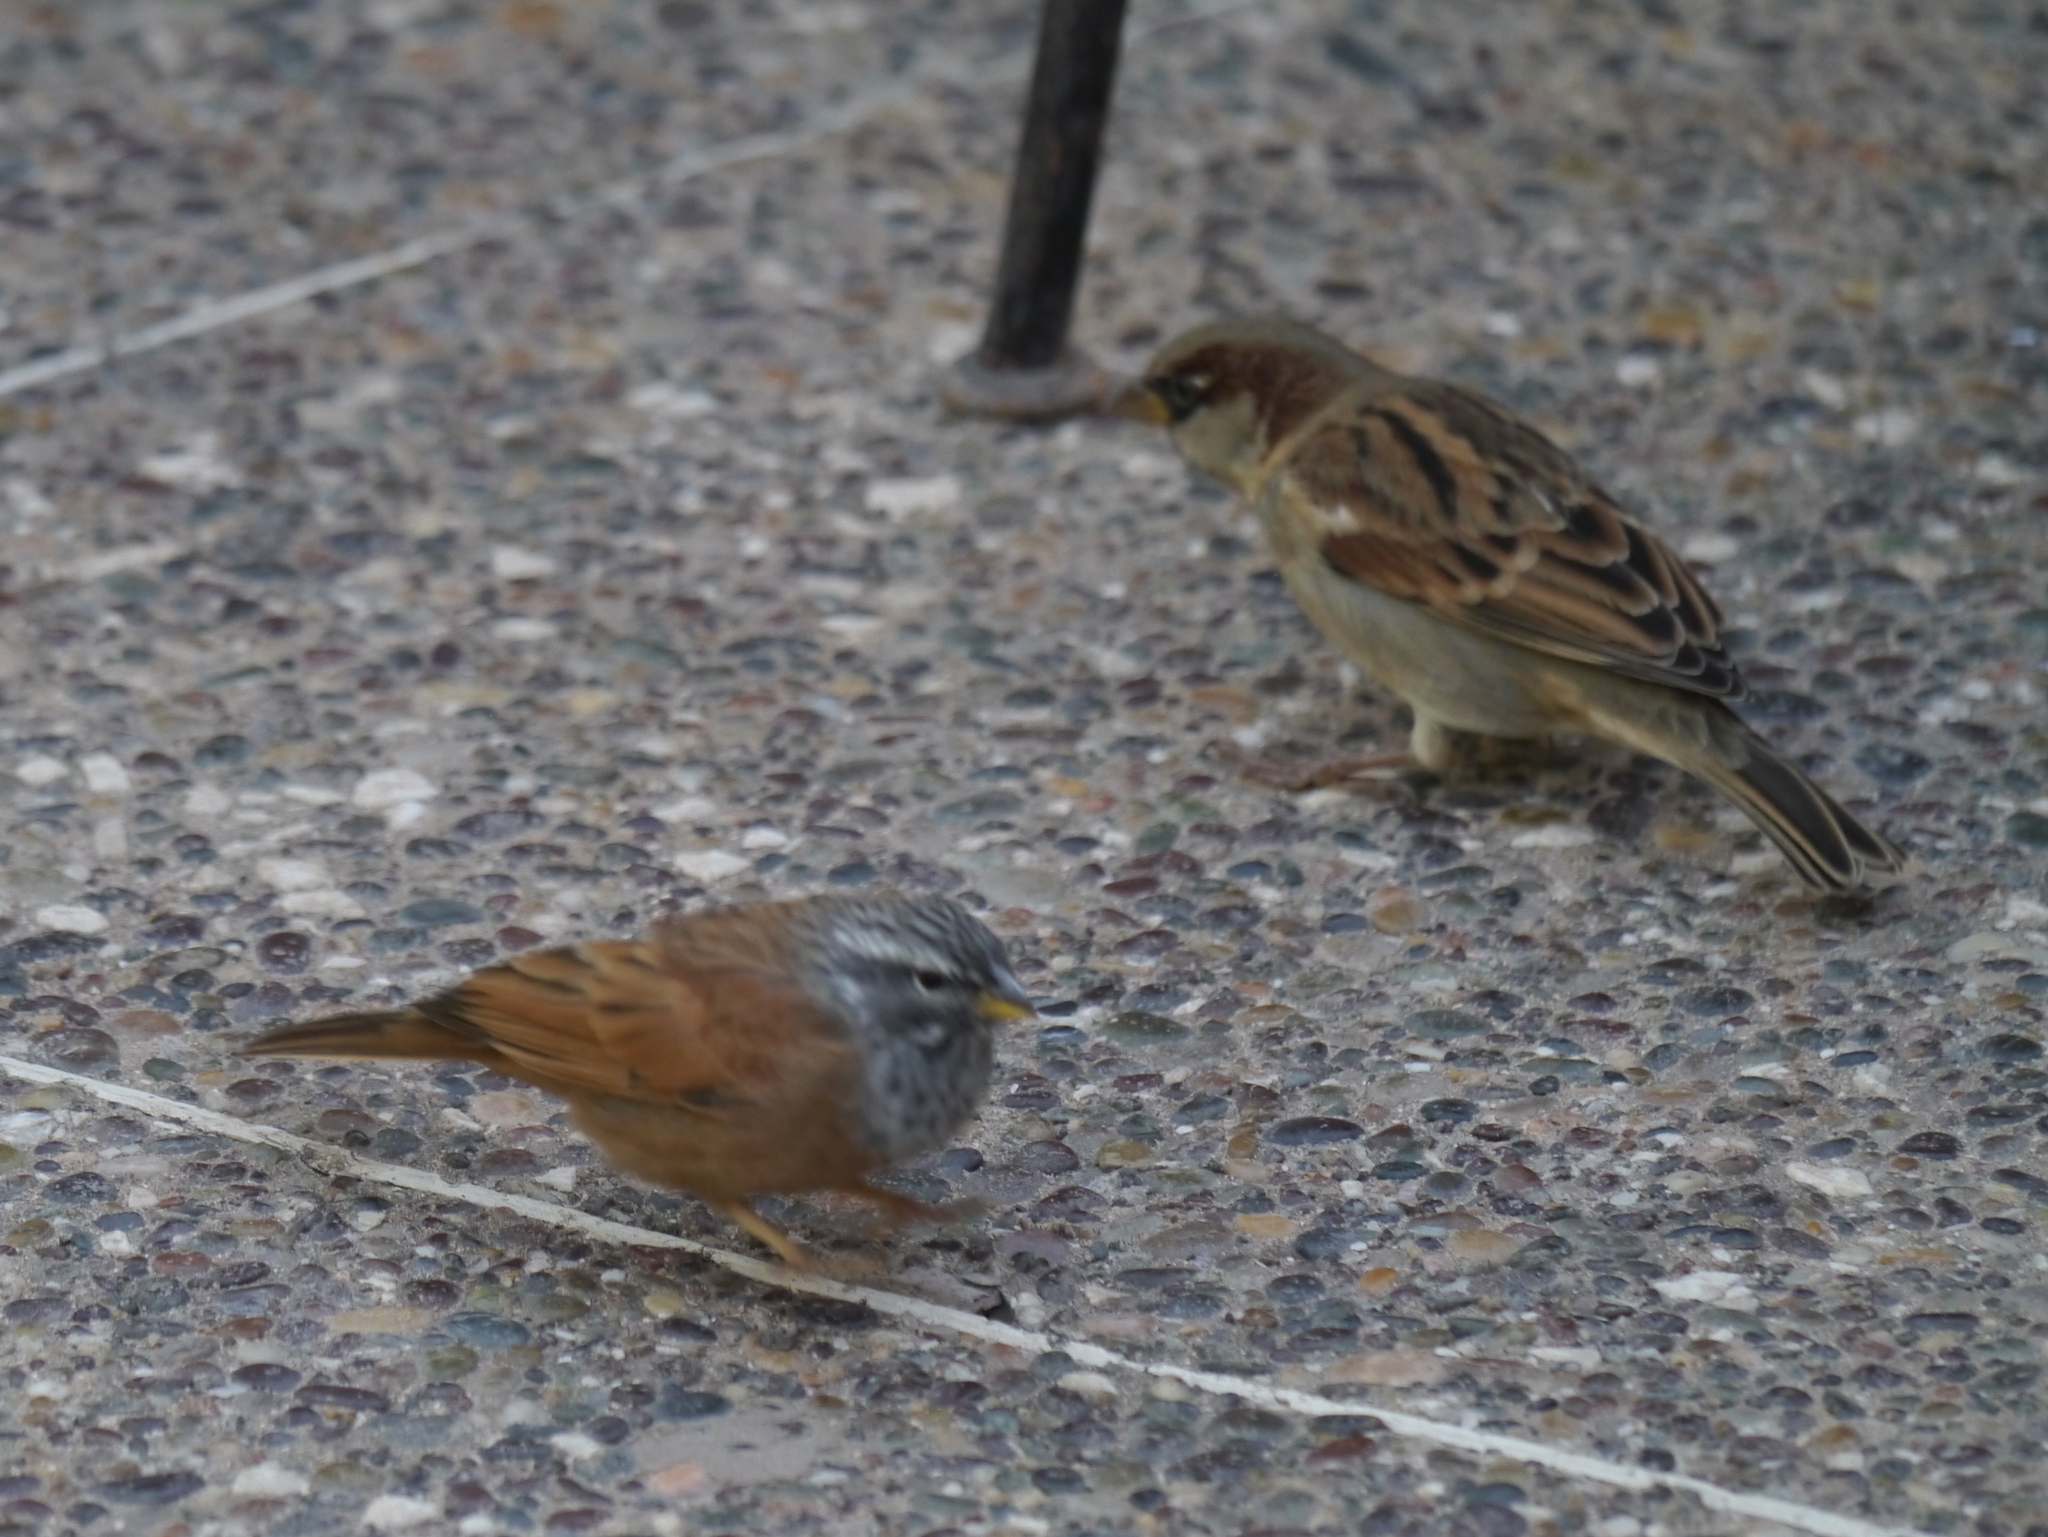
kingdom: Animalia
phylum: Chordata
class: Aves
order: Passeriformes
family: Emberizidae
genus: Emberiza
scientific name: Emberiza sahari
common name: House bunting
